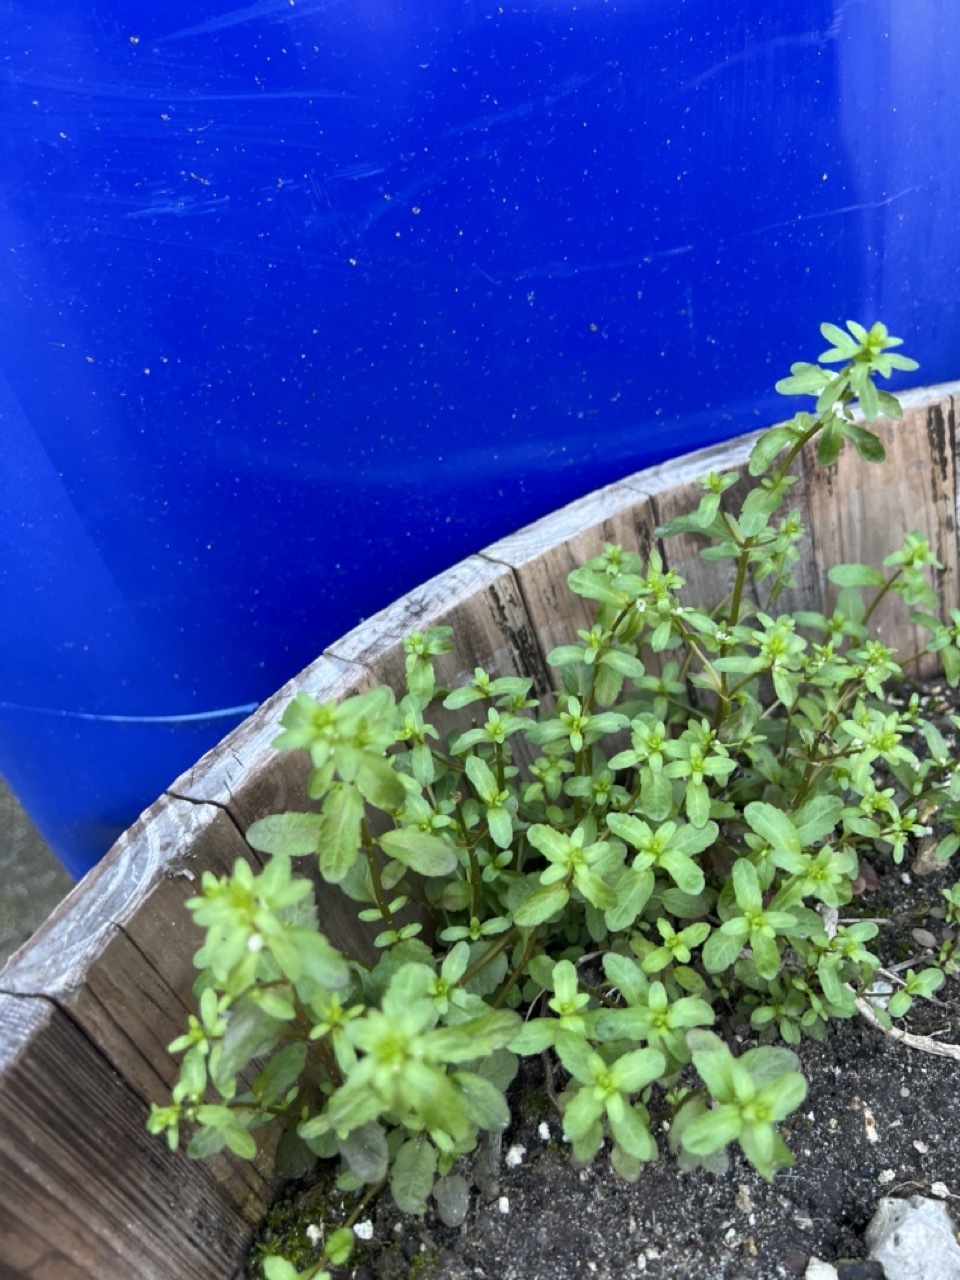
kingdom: Plantae
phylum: Tracheophyta
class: Magnoliopsida
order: Lamiales
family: Plantaginaceae
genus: Veronica
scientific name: Veronica peregrina
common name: Neckweed
